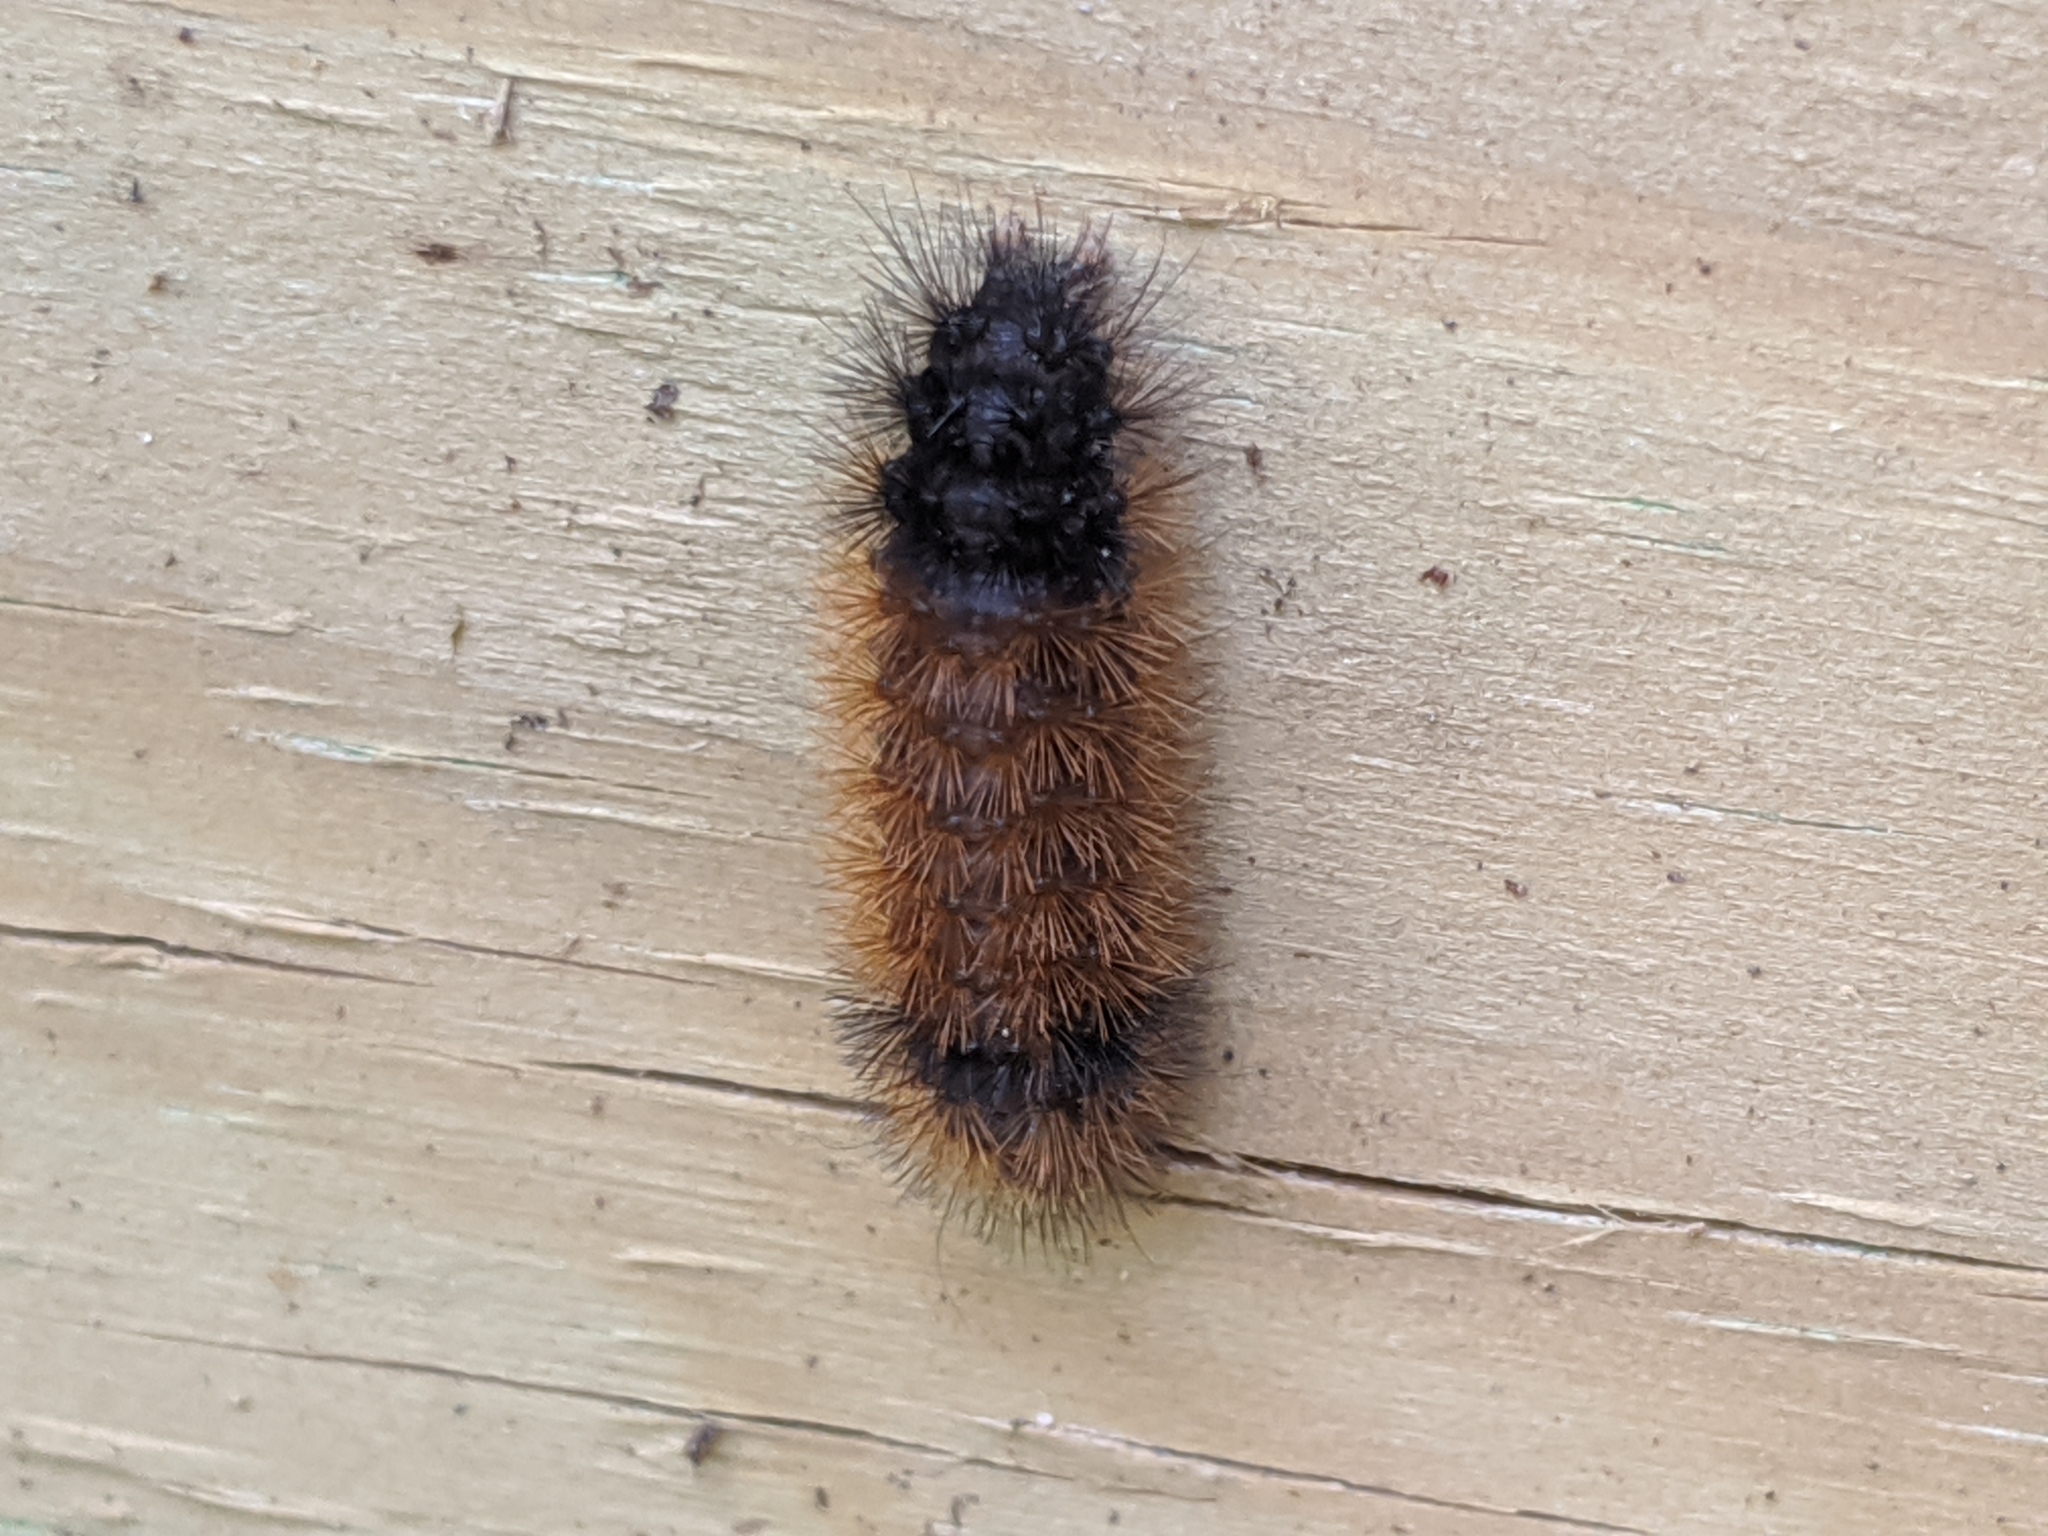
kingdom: Animalia
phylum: Arthropoda
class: Insecta
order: Lepidoptera
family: Erebidae
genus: Pyrrharctia
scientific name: Pyrrharctia isabella
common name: Isabella tiger moth
